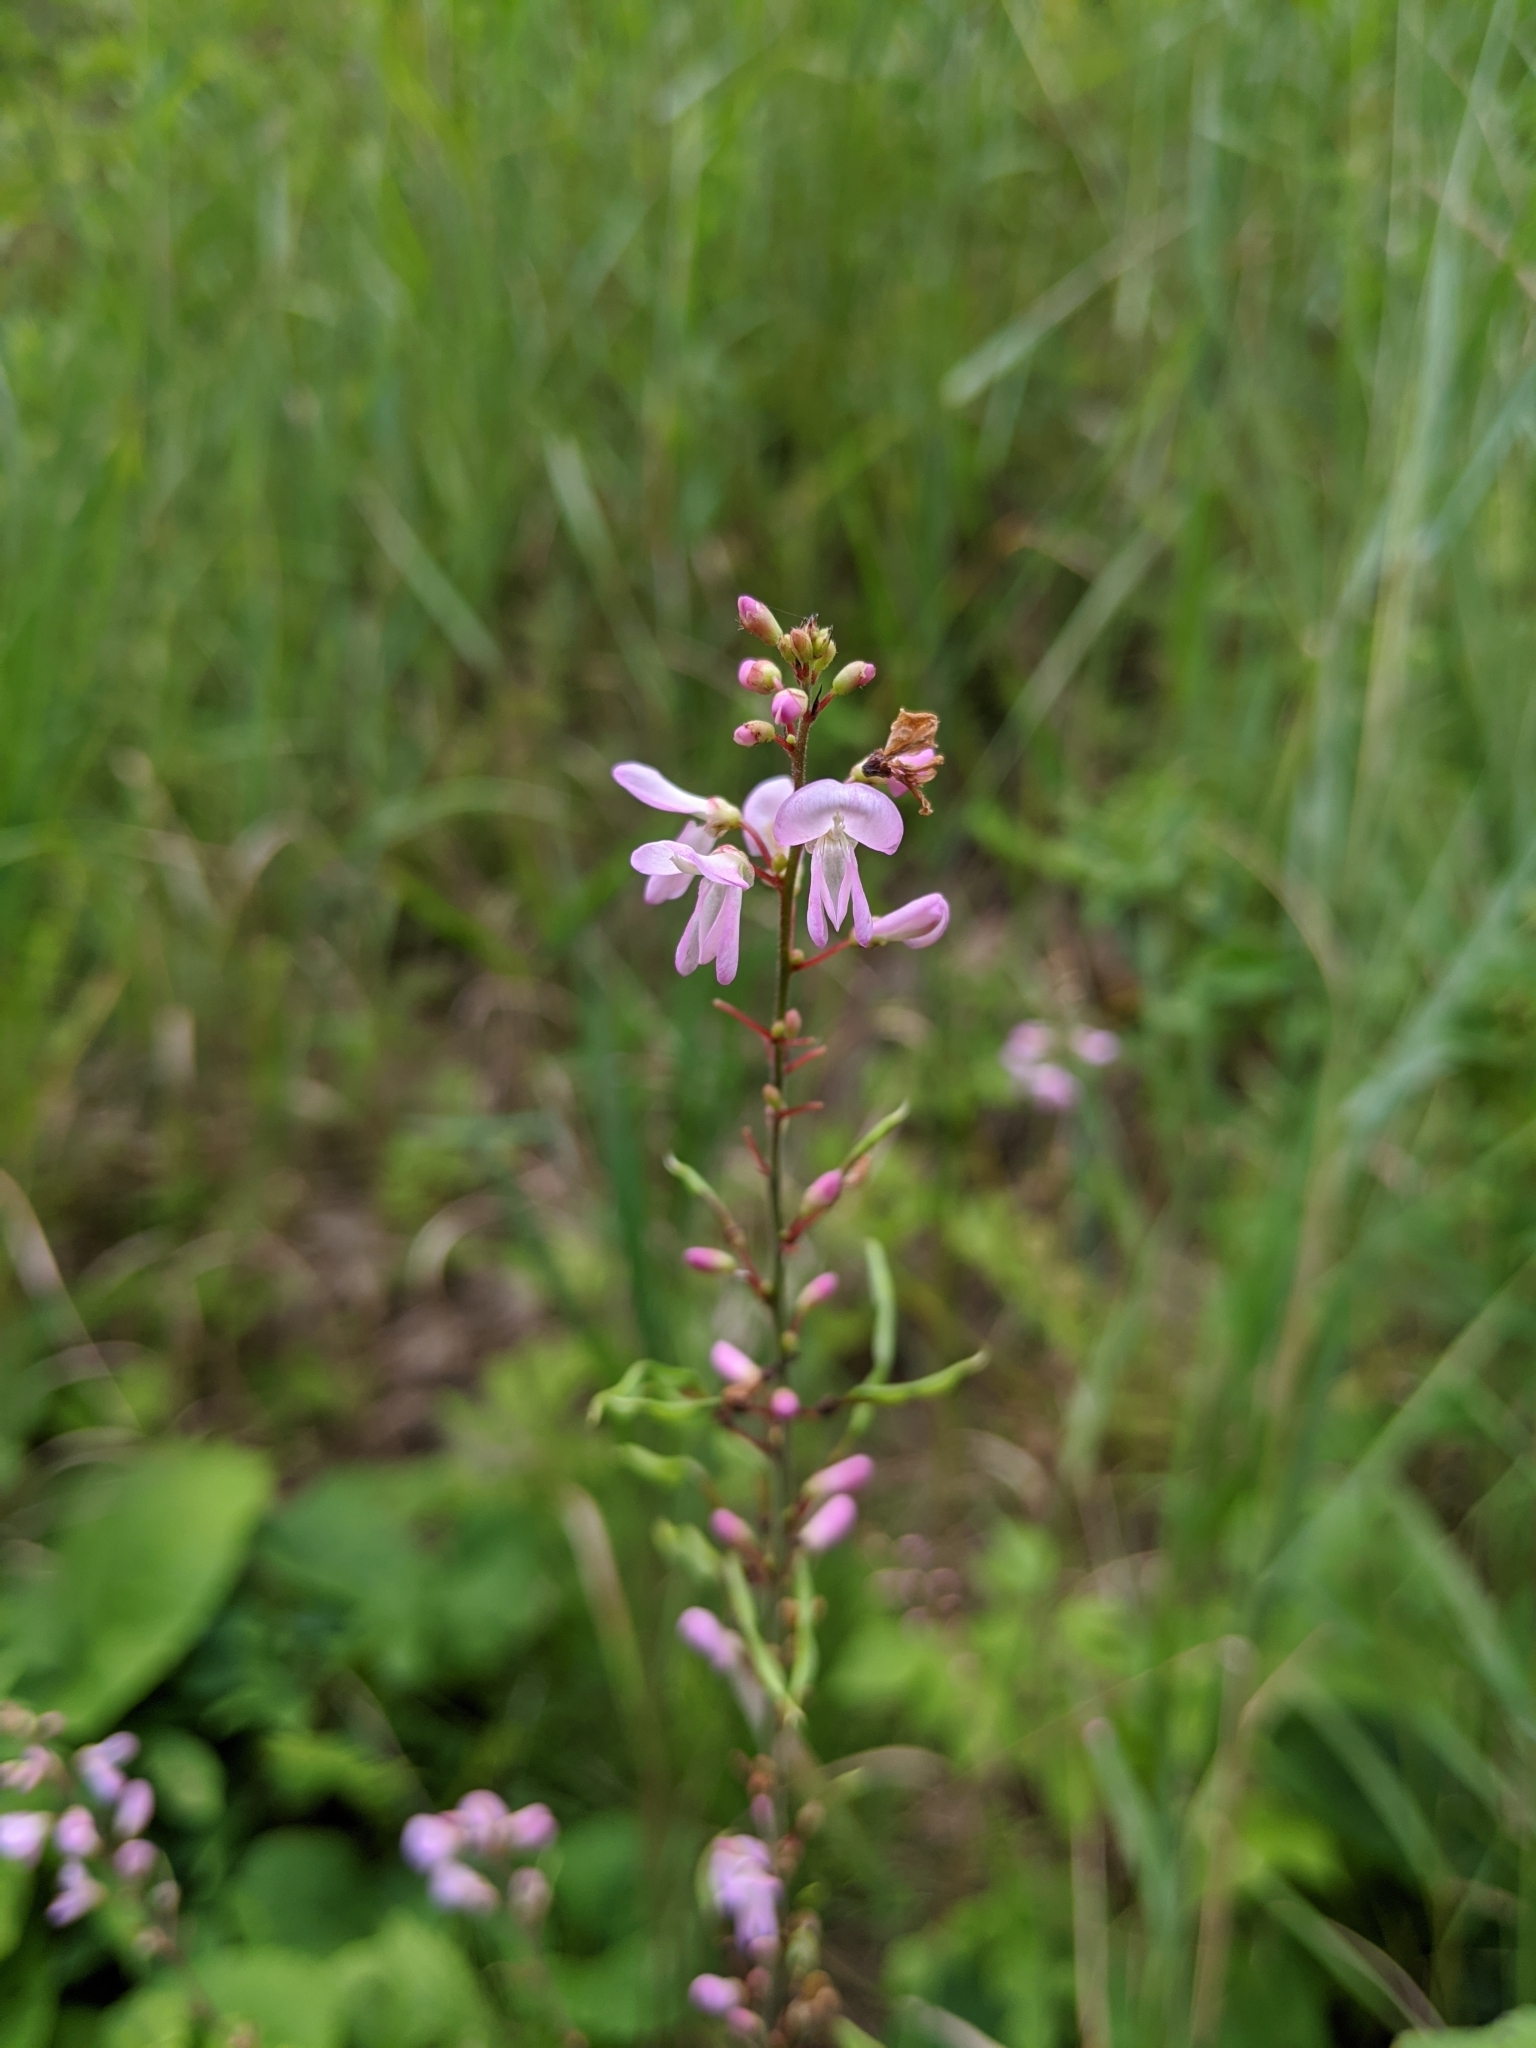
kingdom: Plantae
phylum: Tracheophyta
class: Magnoliopsida
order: Fabales
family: Fabaceae
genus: Hylodesmum
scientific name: Hylodesmum glutinosum
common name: Clustered-leaved tick-trefoil
